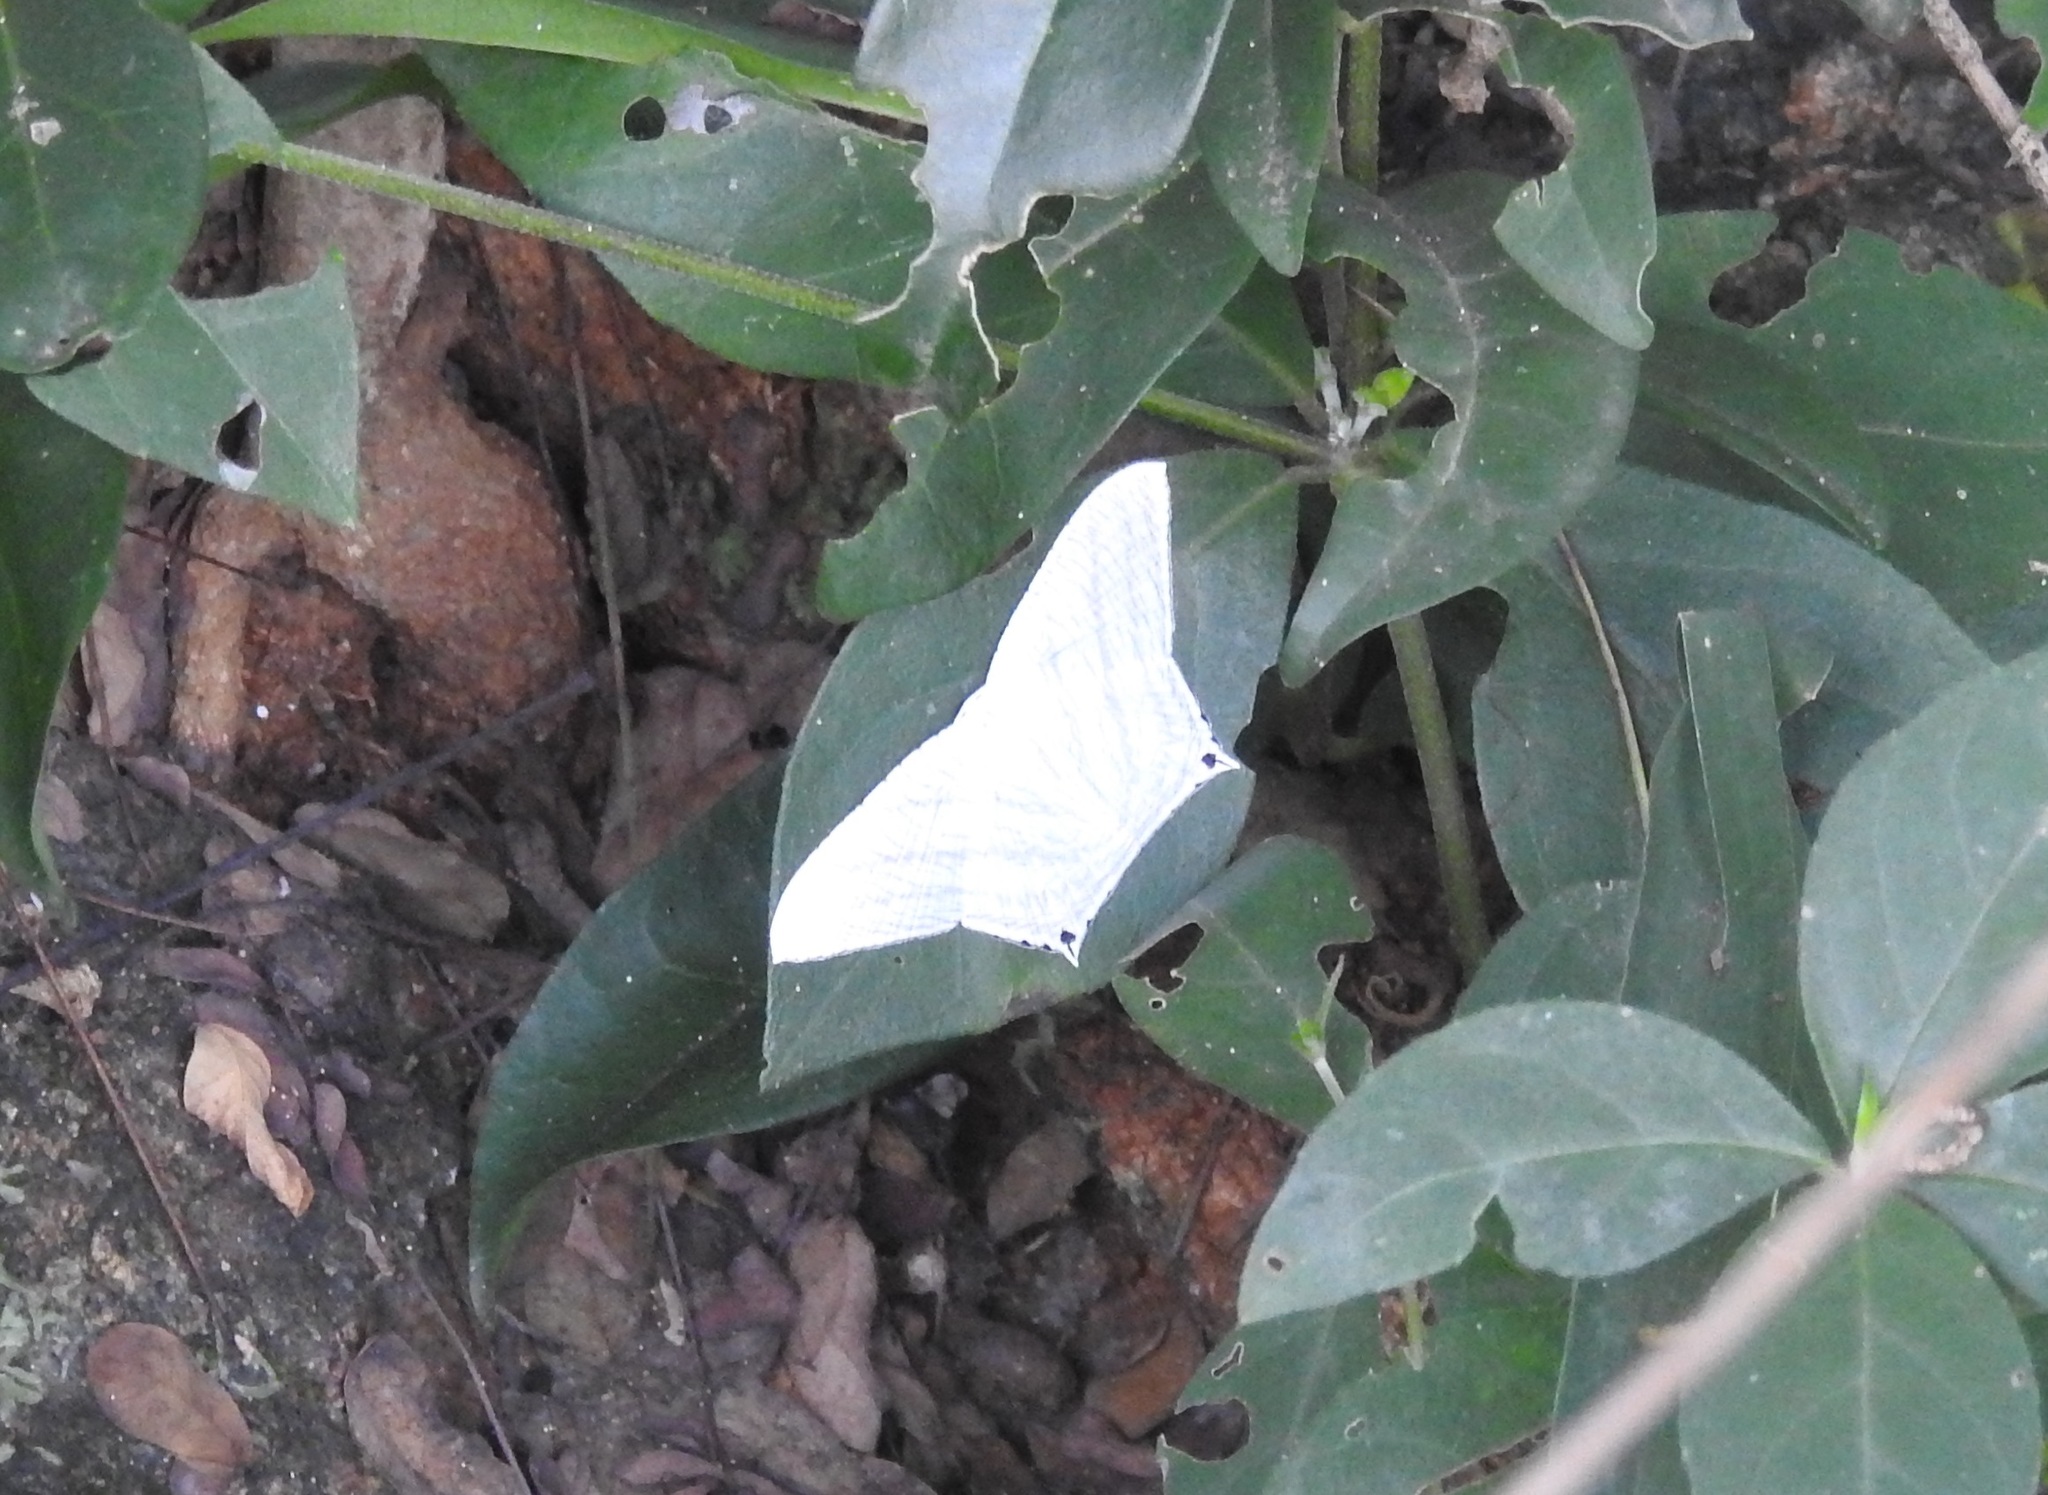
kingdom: Animalia
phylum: Arthropoda
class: Insecta
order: Lepidoptera
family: Uraniidae
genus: Micronia
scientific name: Micronia aculeata
